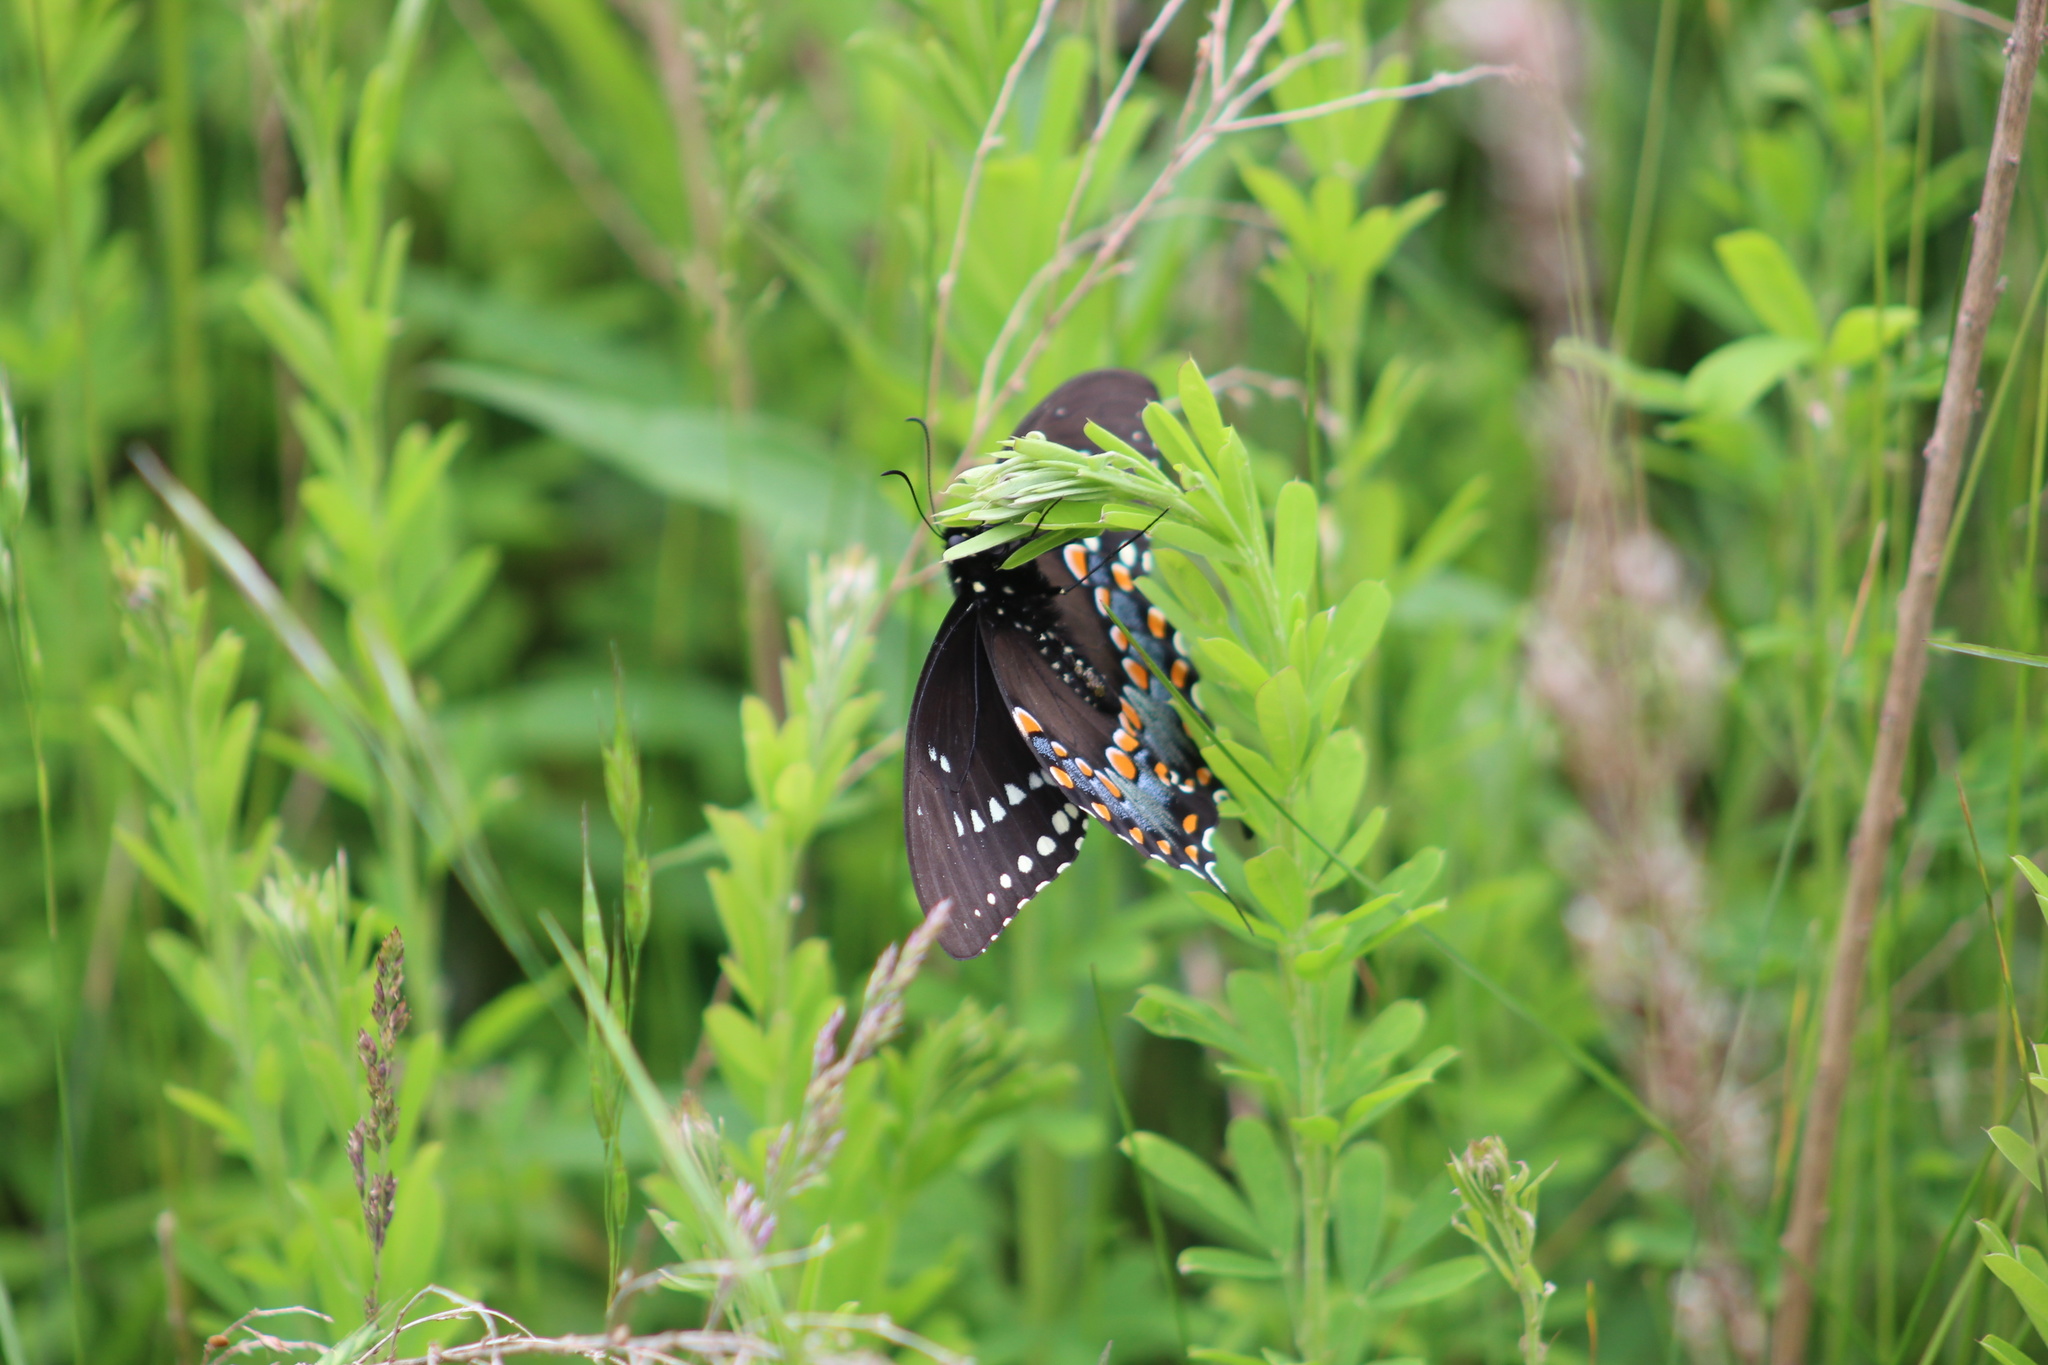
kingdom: Animalia
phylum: Arthropoda
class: Insecta
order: Lepidoptera
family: Papilionidae
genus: Papilio
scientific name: Papilio troilus
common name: Spicebush swallowtail
